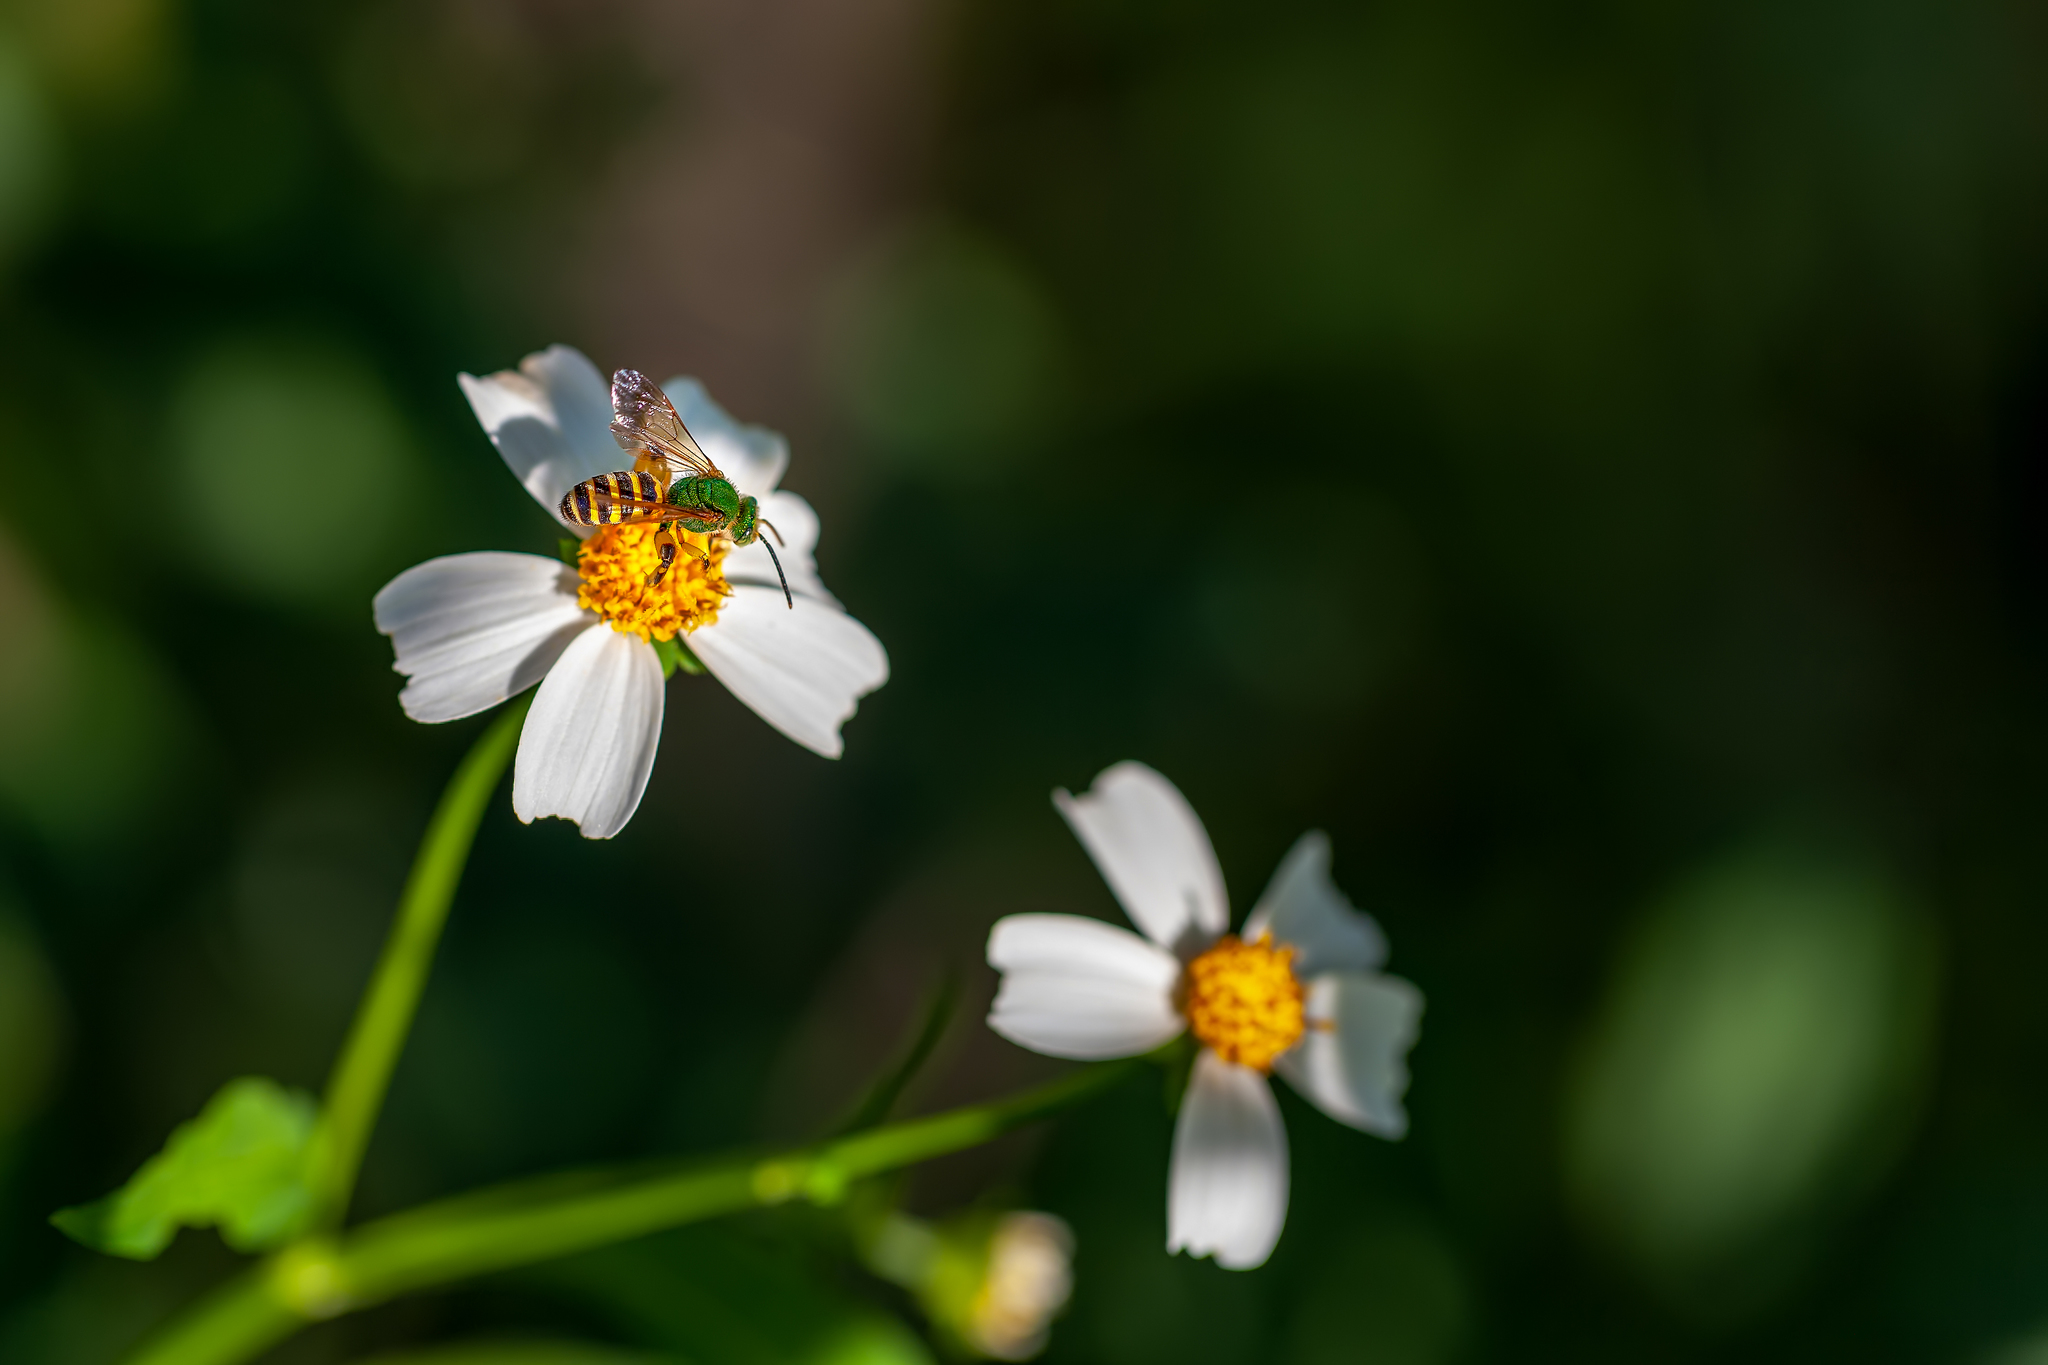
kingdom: Animalia
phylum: Arthropoda
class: Insecta
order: Hymenoptera
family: Halictidae
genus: Agapostemon
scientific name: Agapostemon splendens
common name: Brown-winged striped sweat bee
